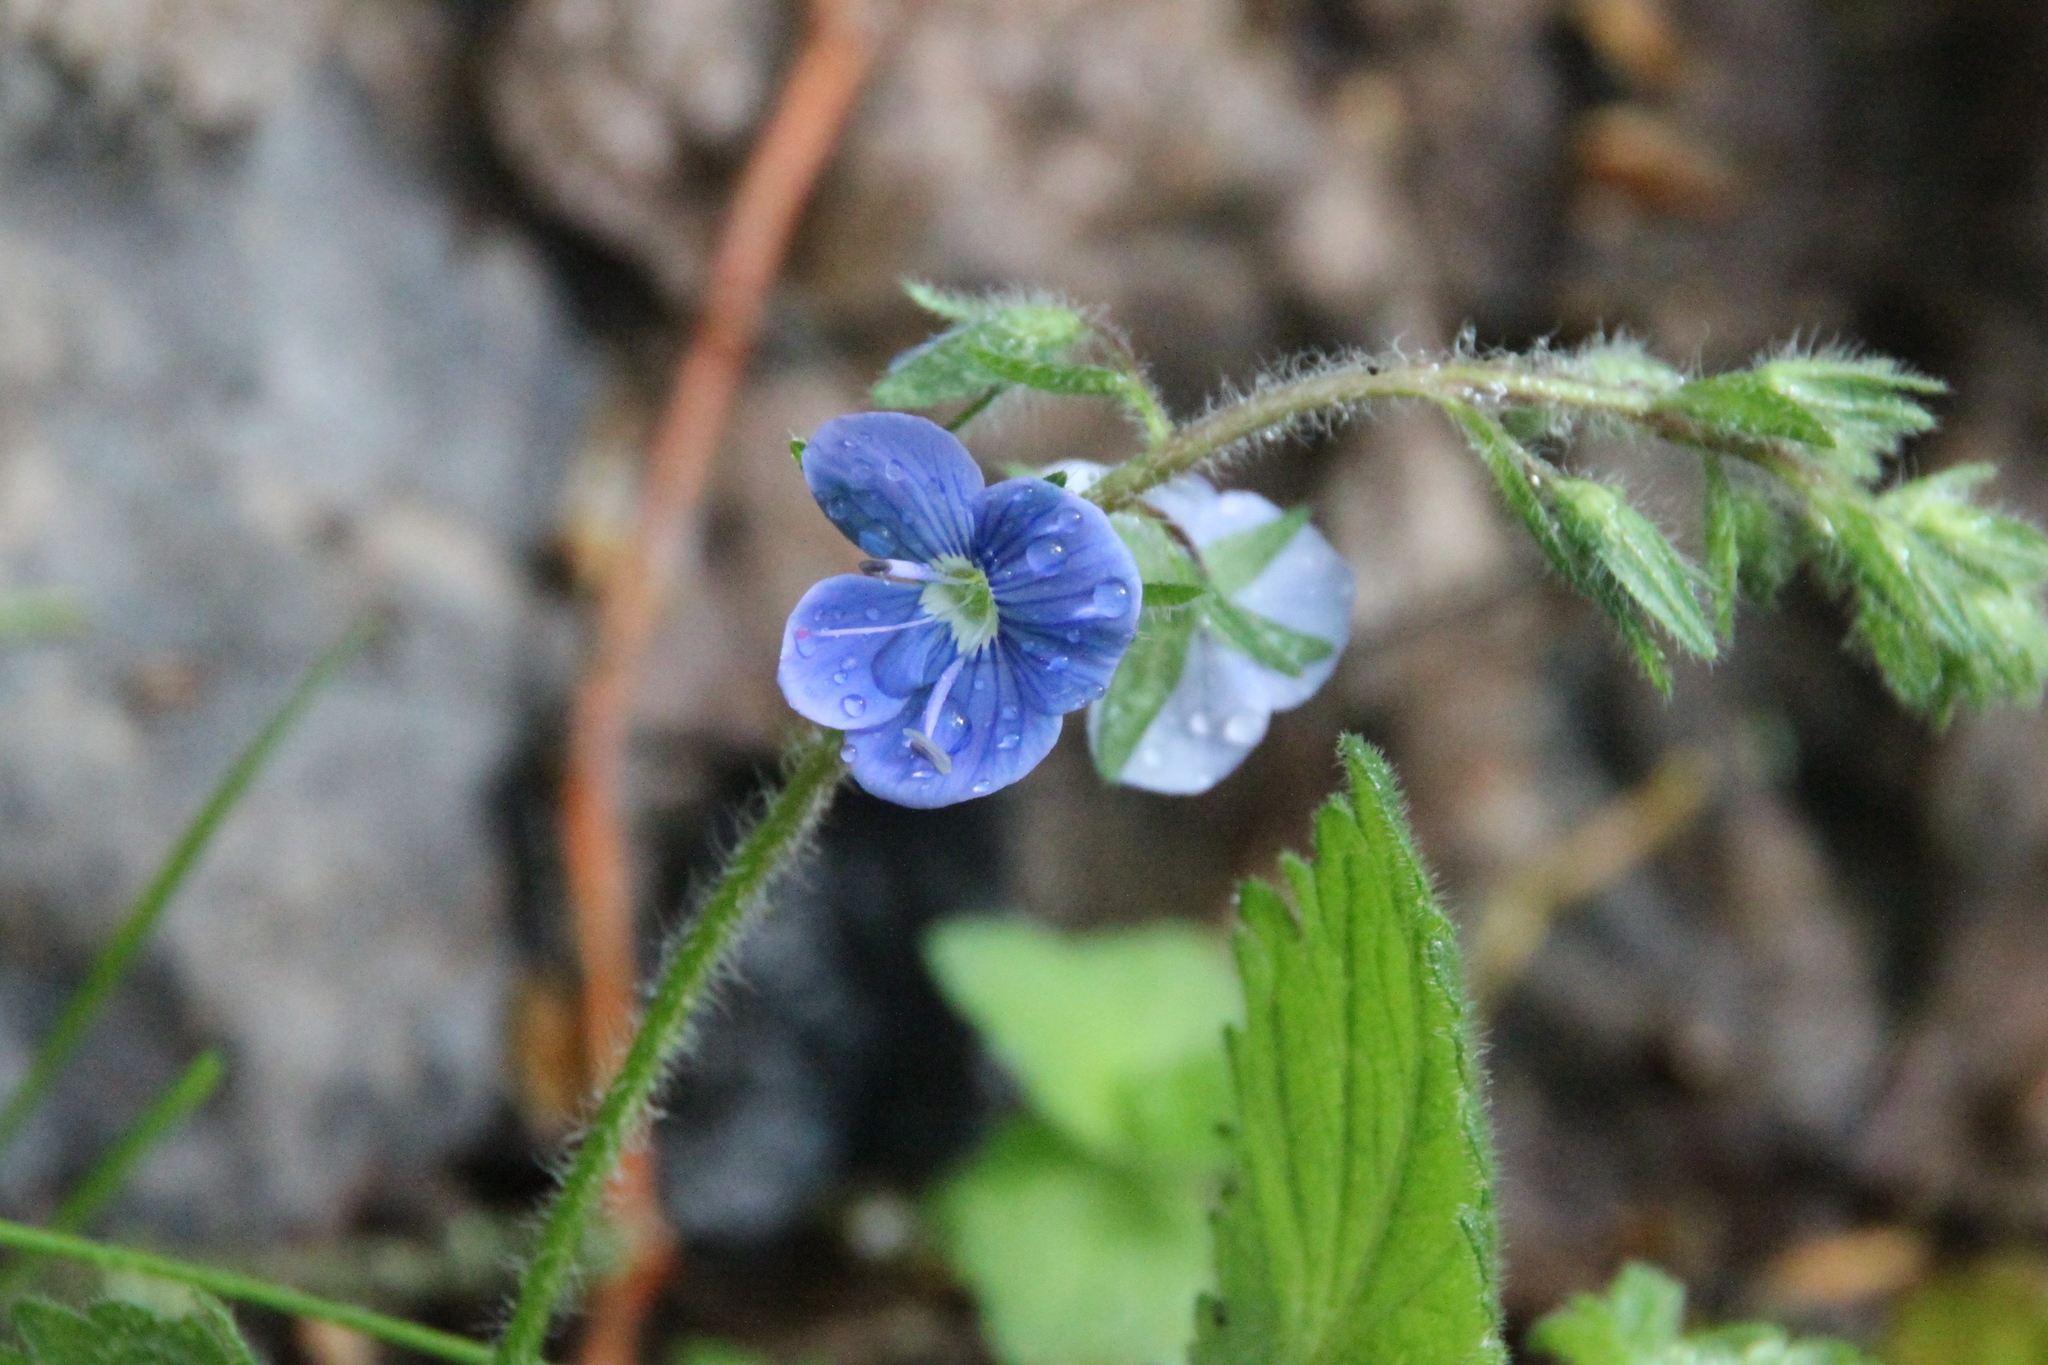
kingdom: Plantae
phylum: Tracheophyta
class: Magnoliopsida
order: Lamiales
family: Plantaginaceae
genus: Veronica
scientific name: Veronica chamaedrys
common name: Germander speedwell
